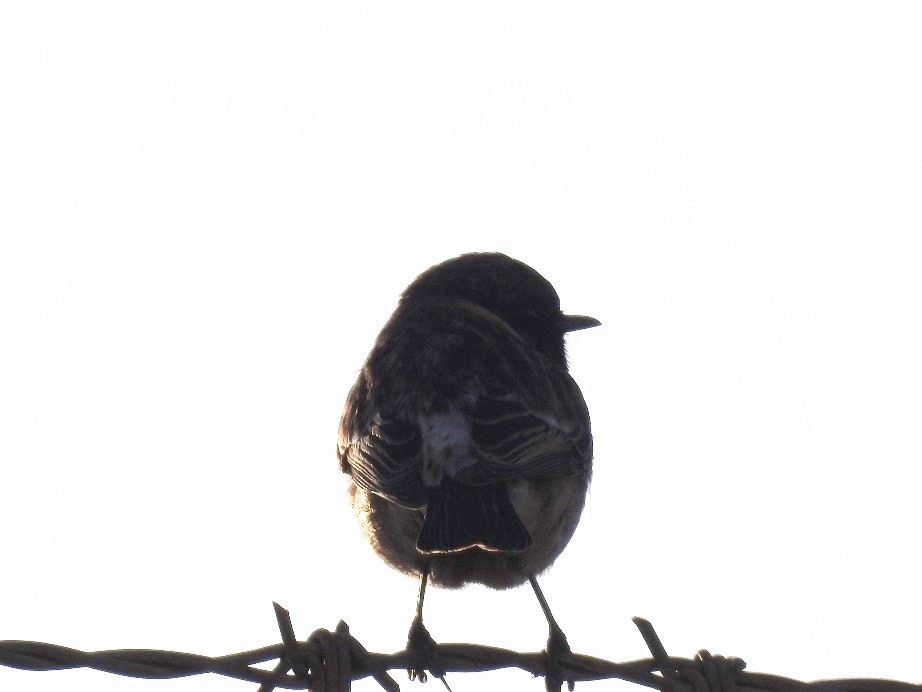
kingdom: Animalia
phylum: Chordata
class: Aves
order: Passeriformes
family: Muscicapidae
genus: Saxicola
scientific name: Saxicola rubicola
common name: European stonechat
